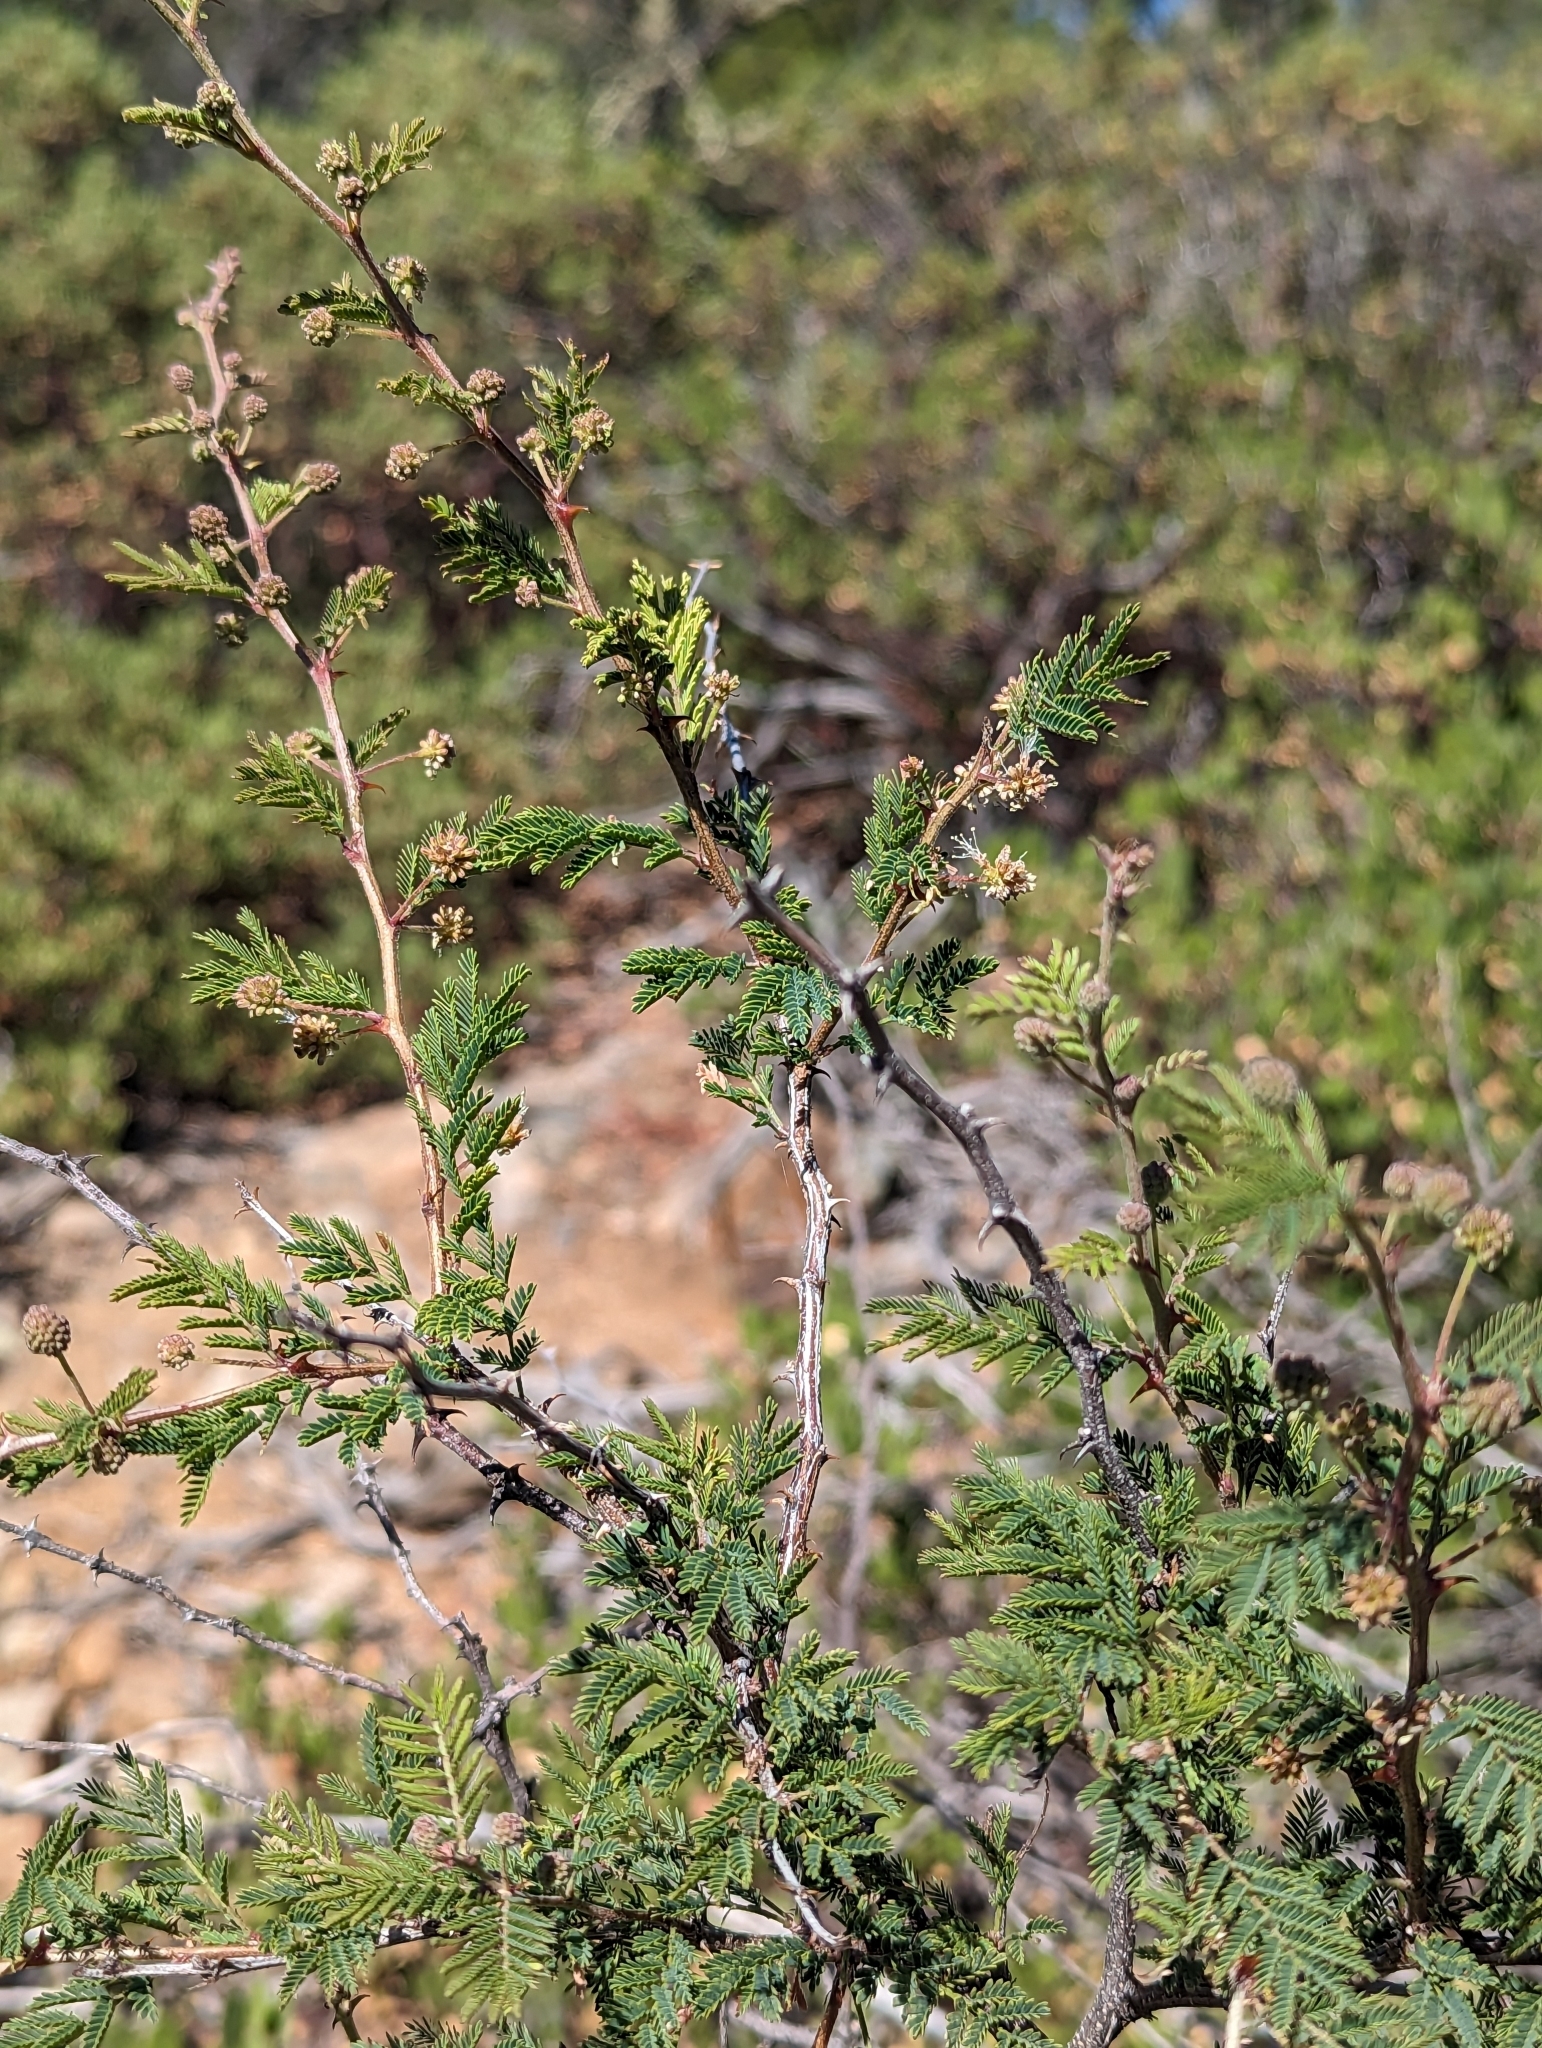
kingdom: Plantae
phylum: Tracheophyta
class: Magnoliopsida
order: Fabales
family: Fabaceae
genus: Mimosa
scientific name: Mimosa aculeaticarpa
